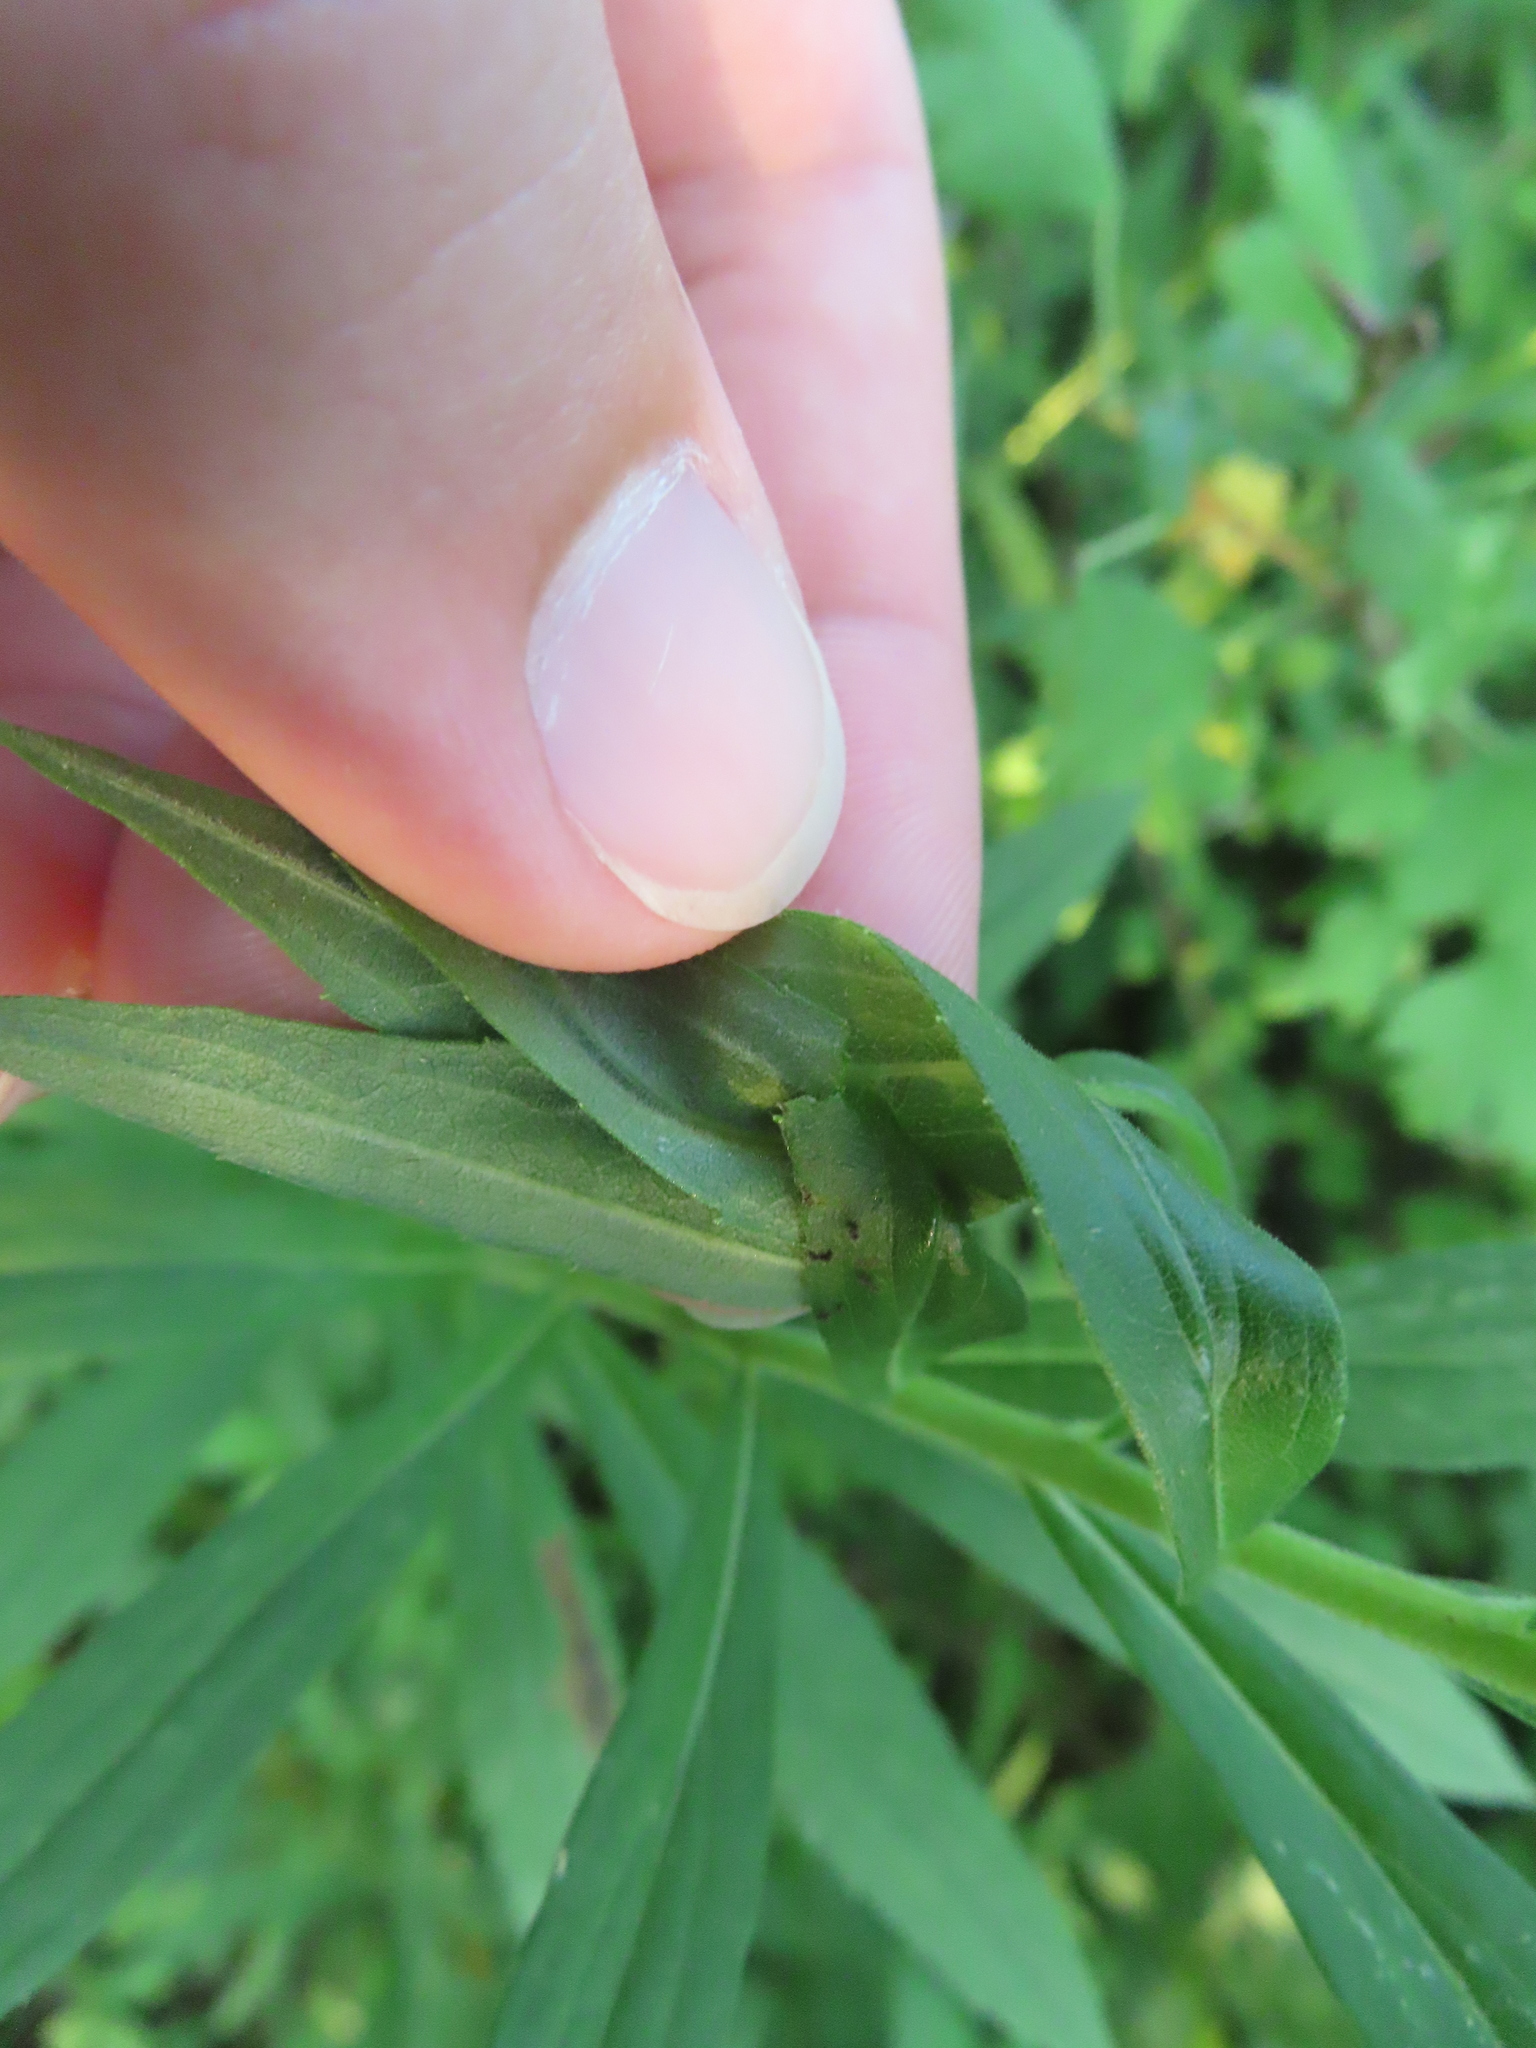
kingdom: Animalia
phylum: Arthropoda
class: Insecta
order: Diptera
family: Cecidomyiidae
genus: Asphondylia
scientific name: Asphondylia solidaginis
